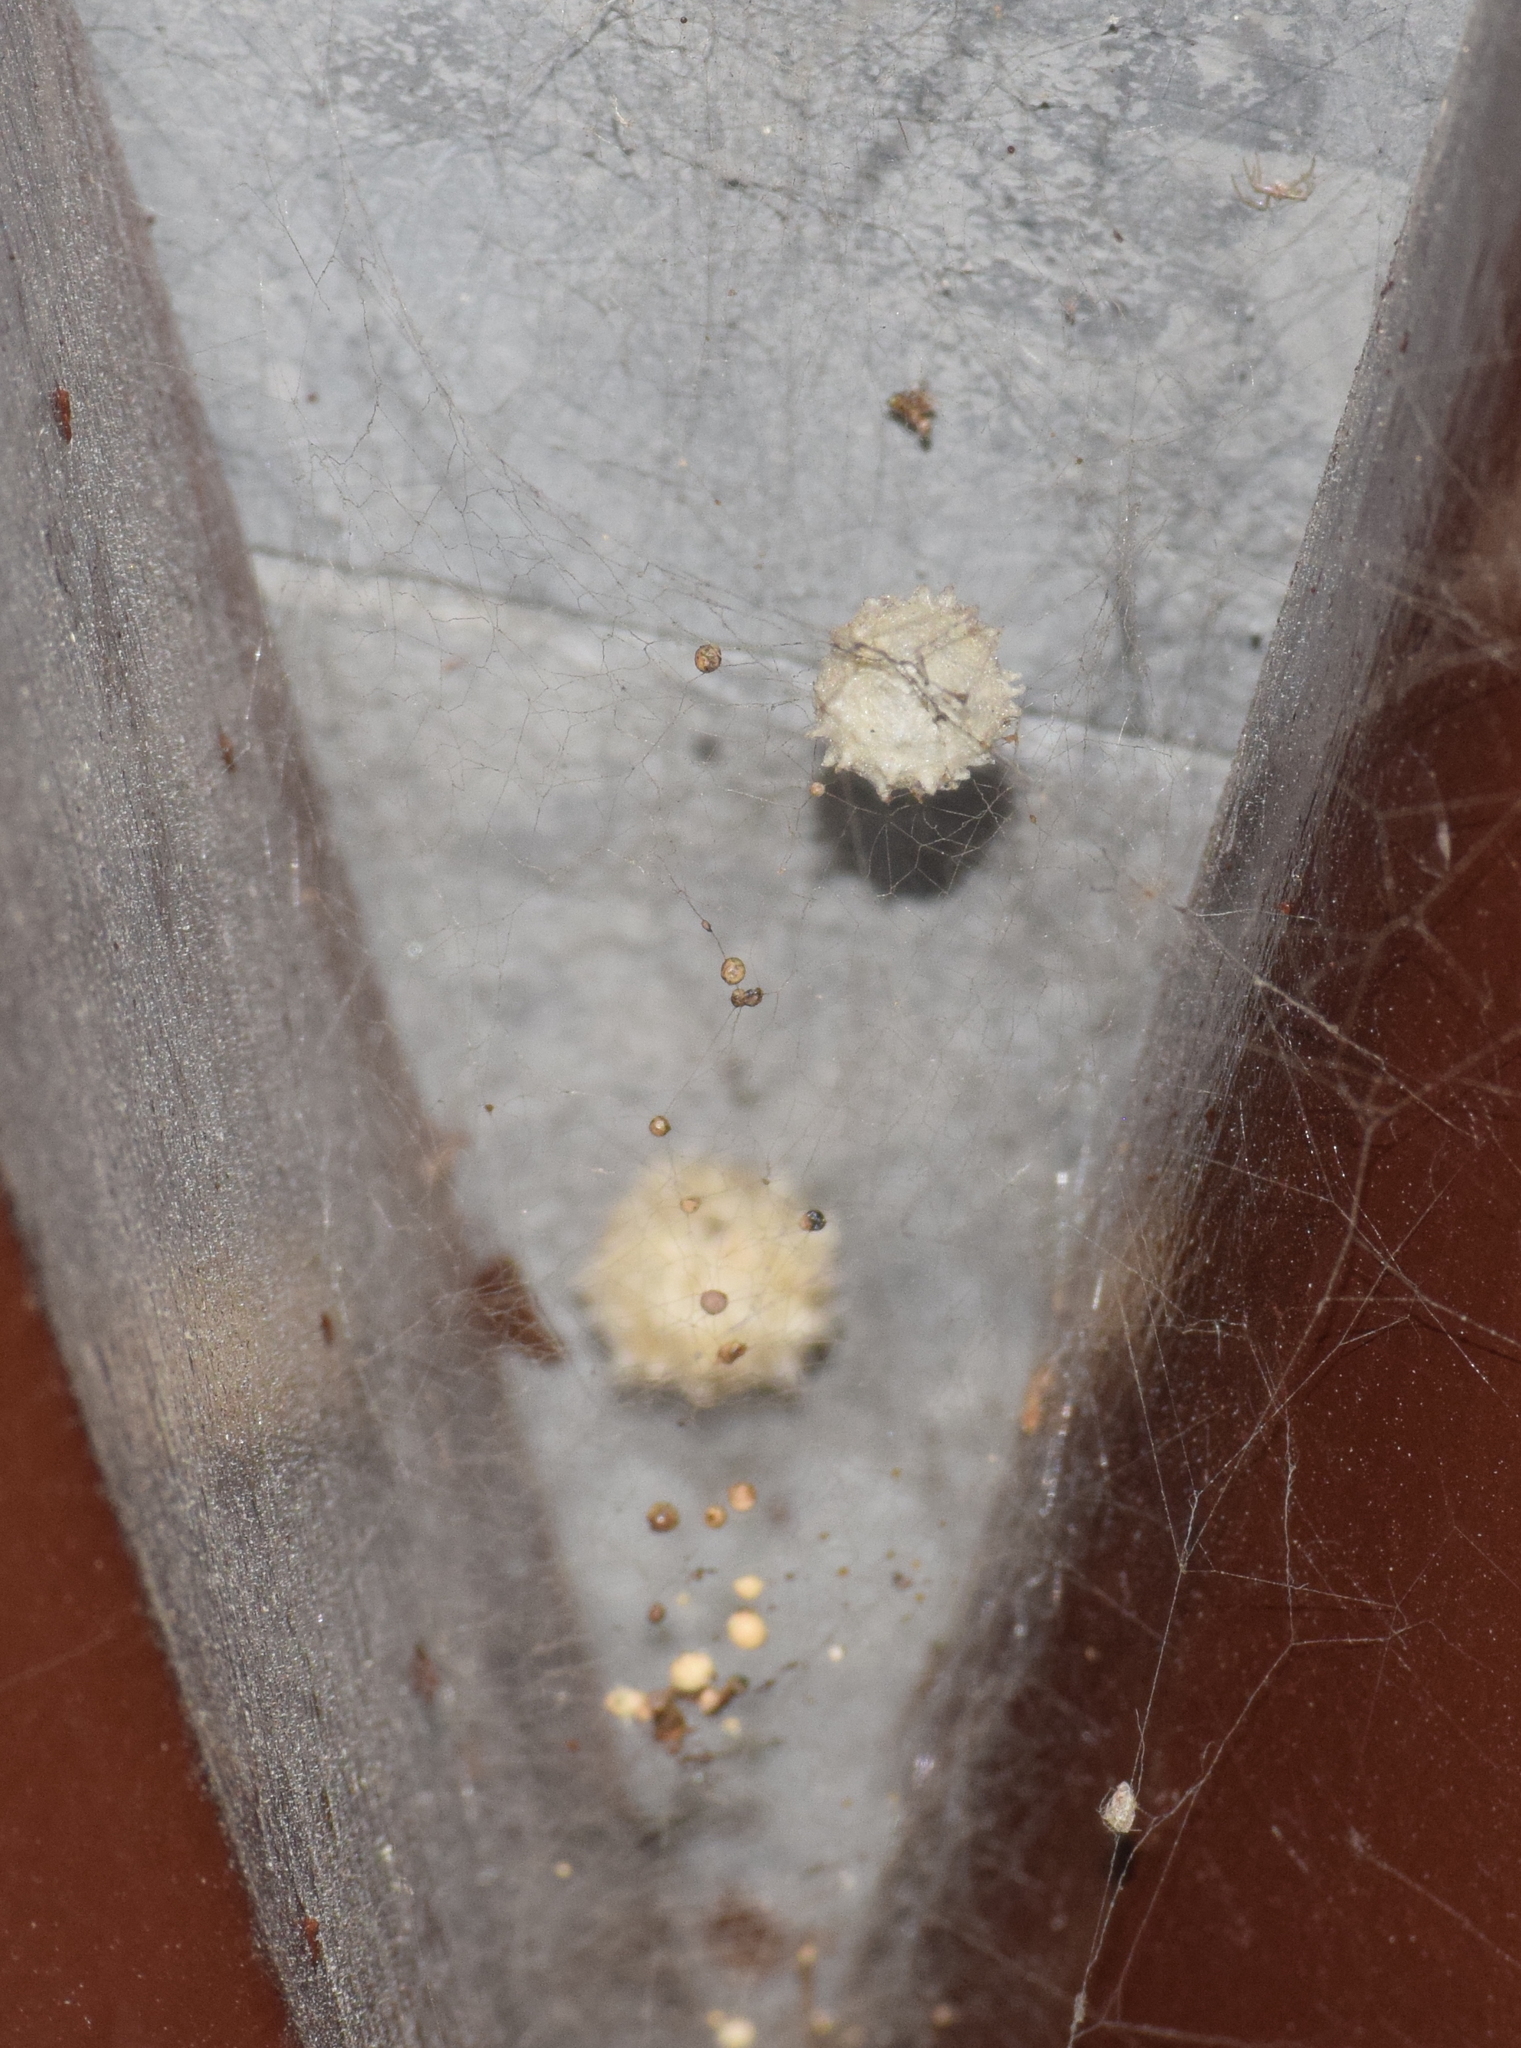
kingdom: Animalia
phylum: Arthropoda
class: Arachnida
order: Araneae
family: Theridiidae
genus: Latrodectus
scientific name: Latrodectus geometricus
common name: Brown widow spider
